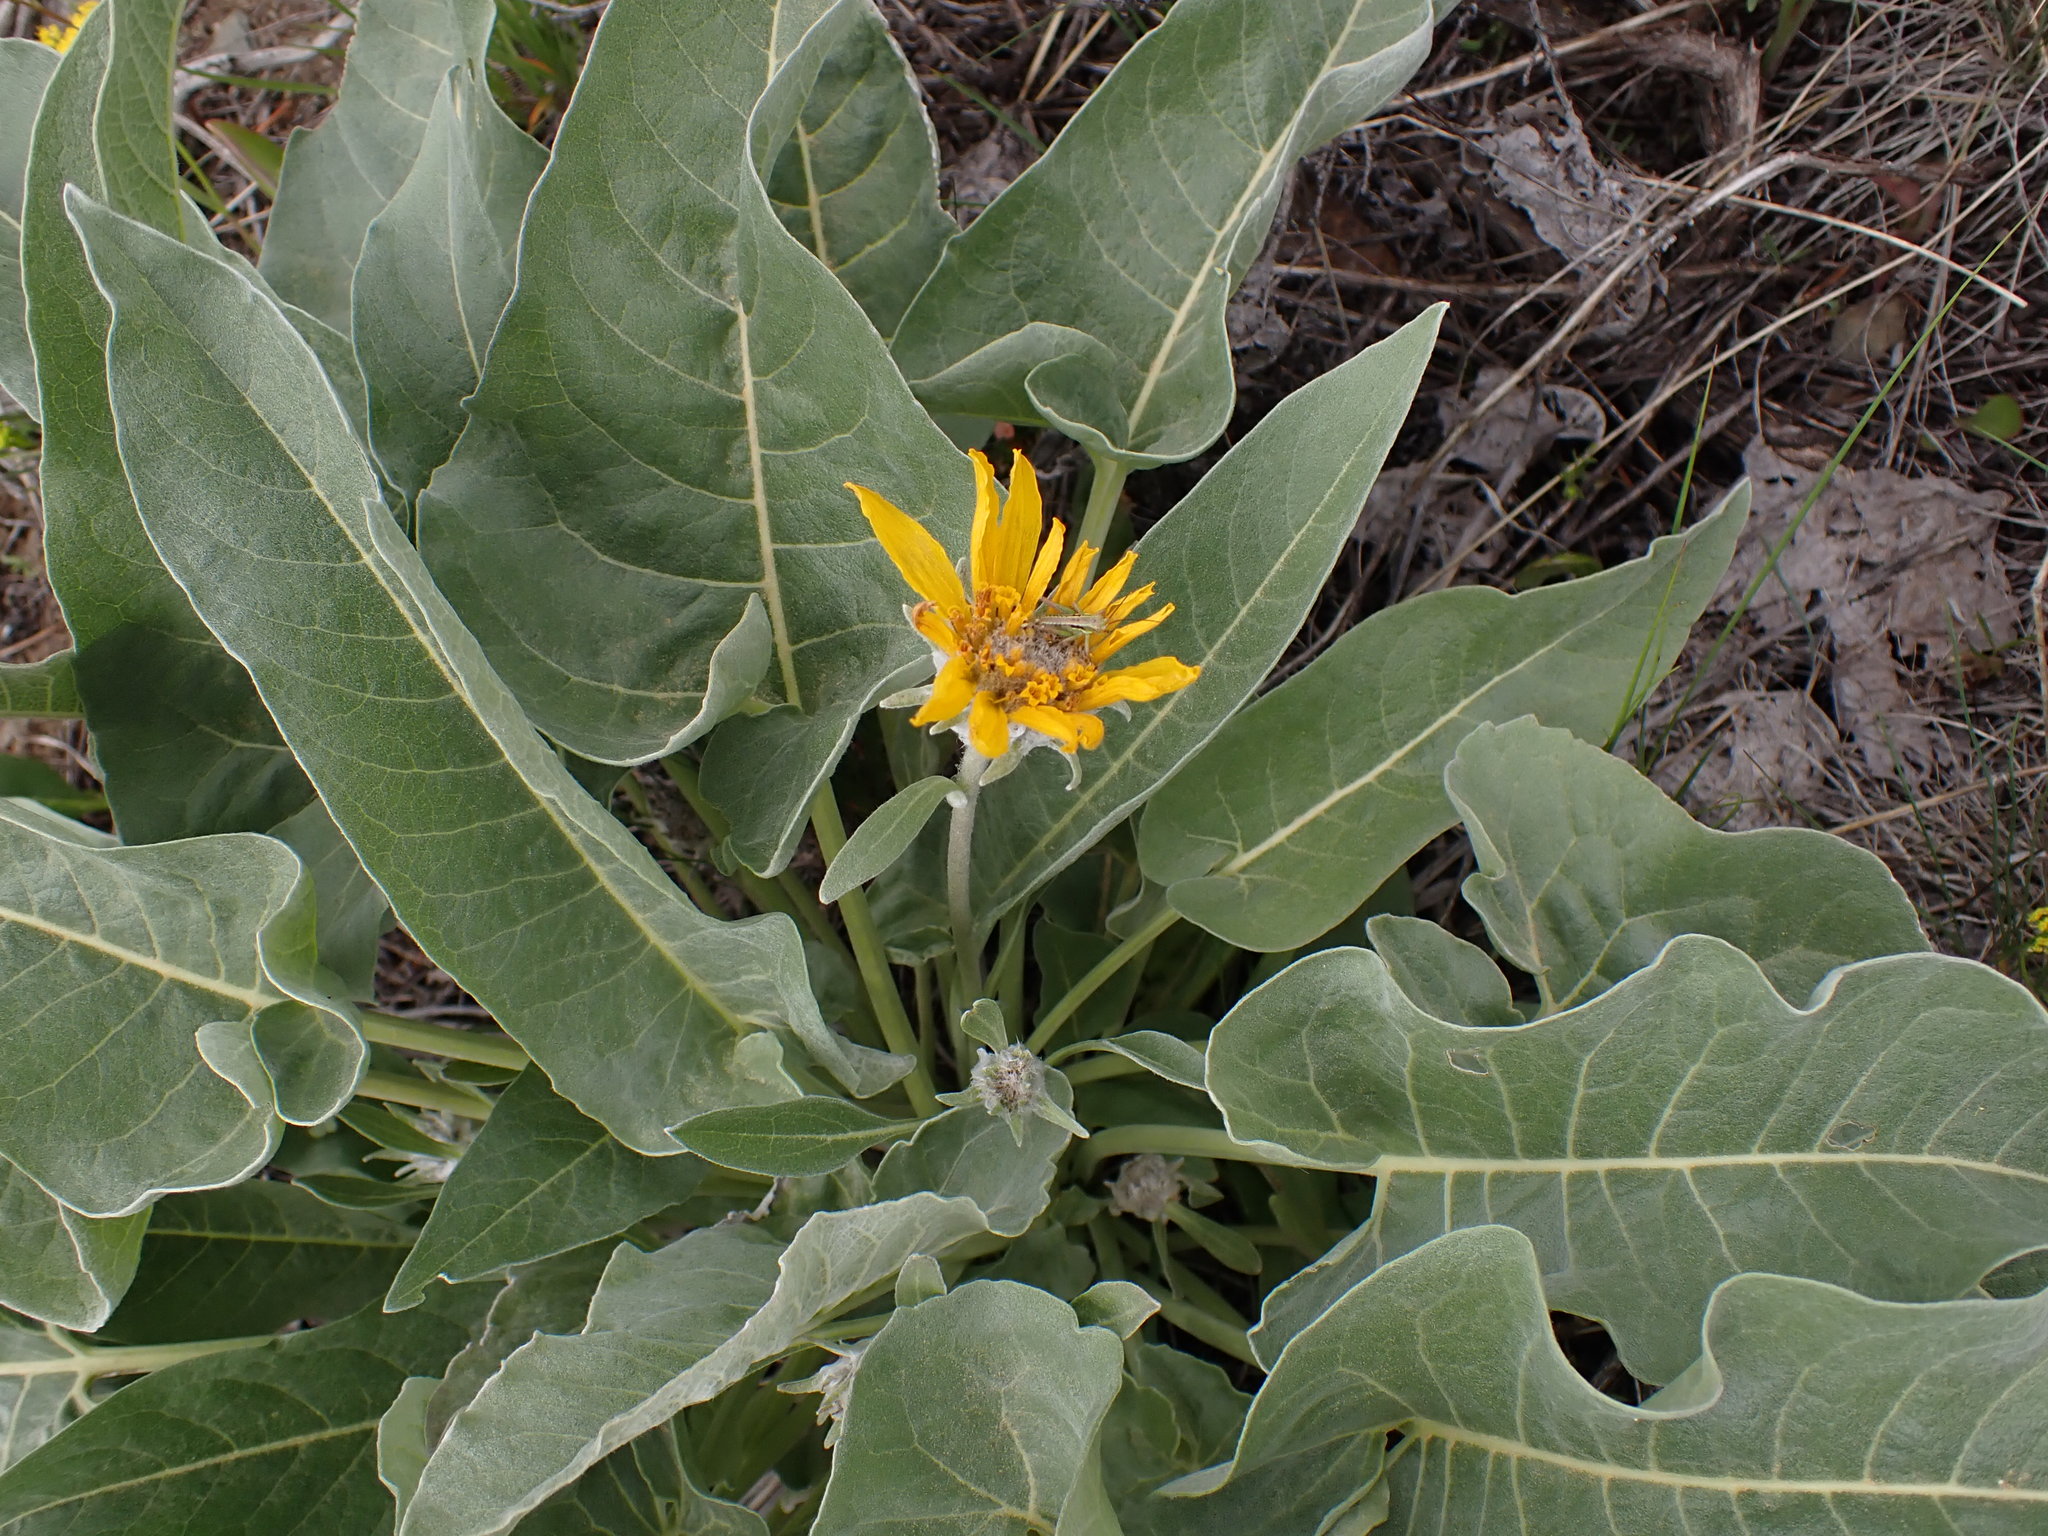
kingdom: Plantae
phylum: Tracheophyta
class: Magnoliopsida
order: Asterales
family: Asteraceae
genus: Wyethia
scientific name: Wyethia sagittata
